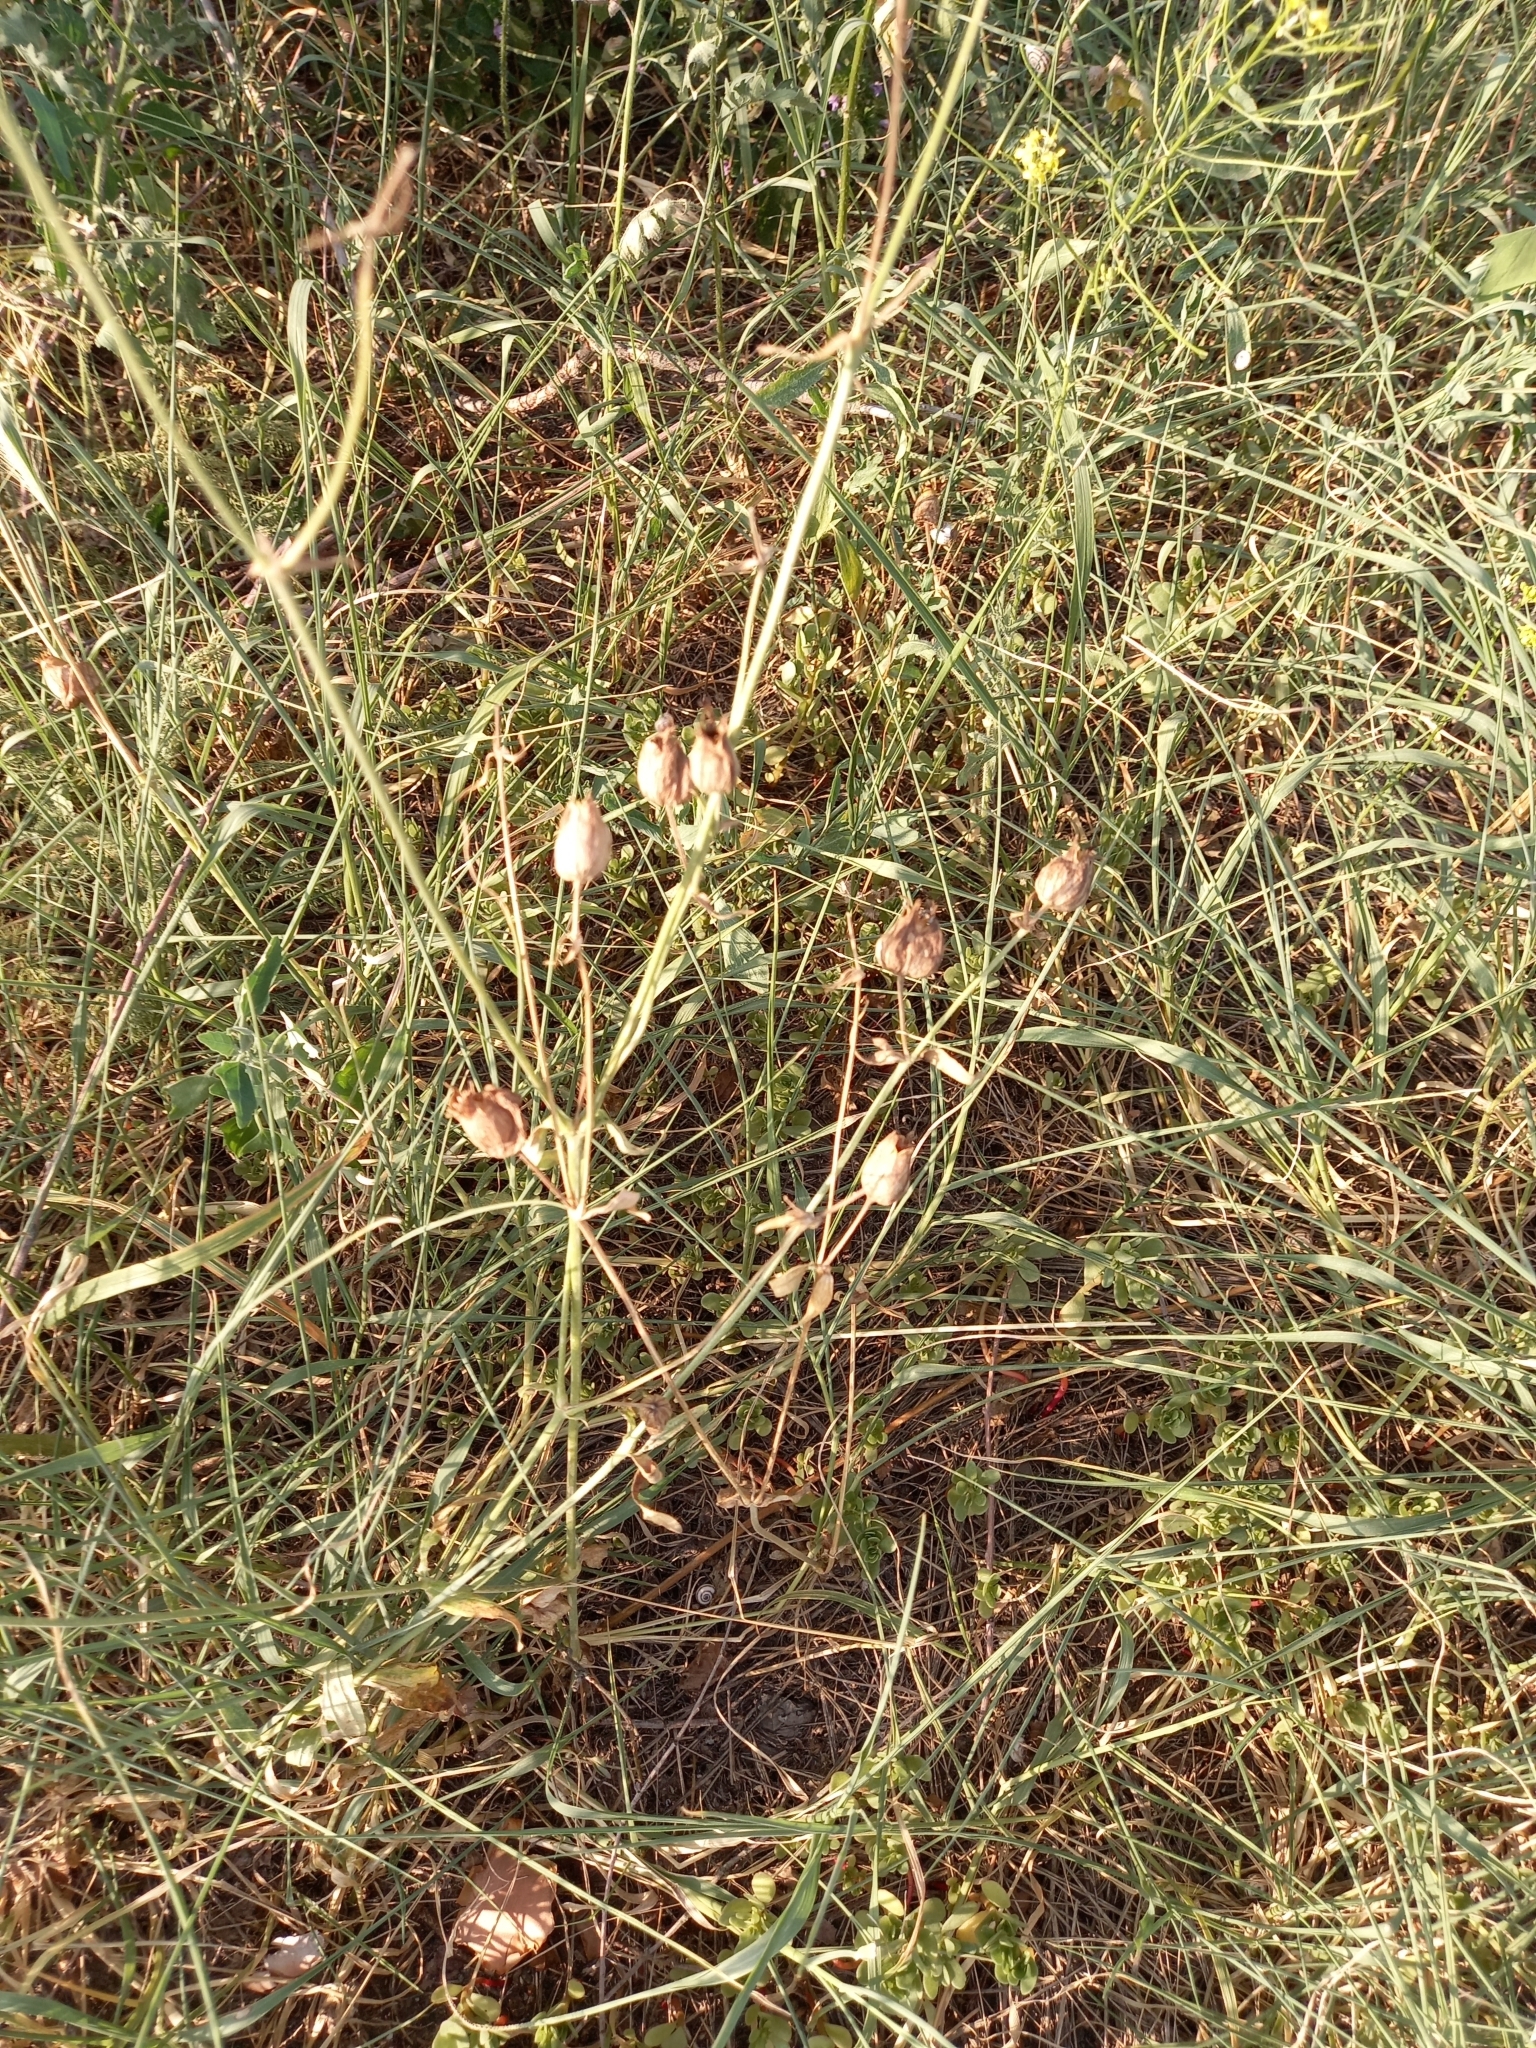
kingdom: Plantae
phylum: Tracheophyta
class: Magnoliopsida
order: Caryophyllales
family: Caryophyllaceae
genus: Silene
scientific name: Silene latifolia
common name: White campion
